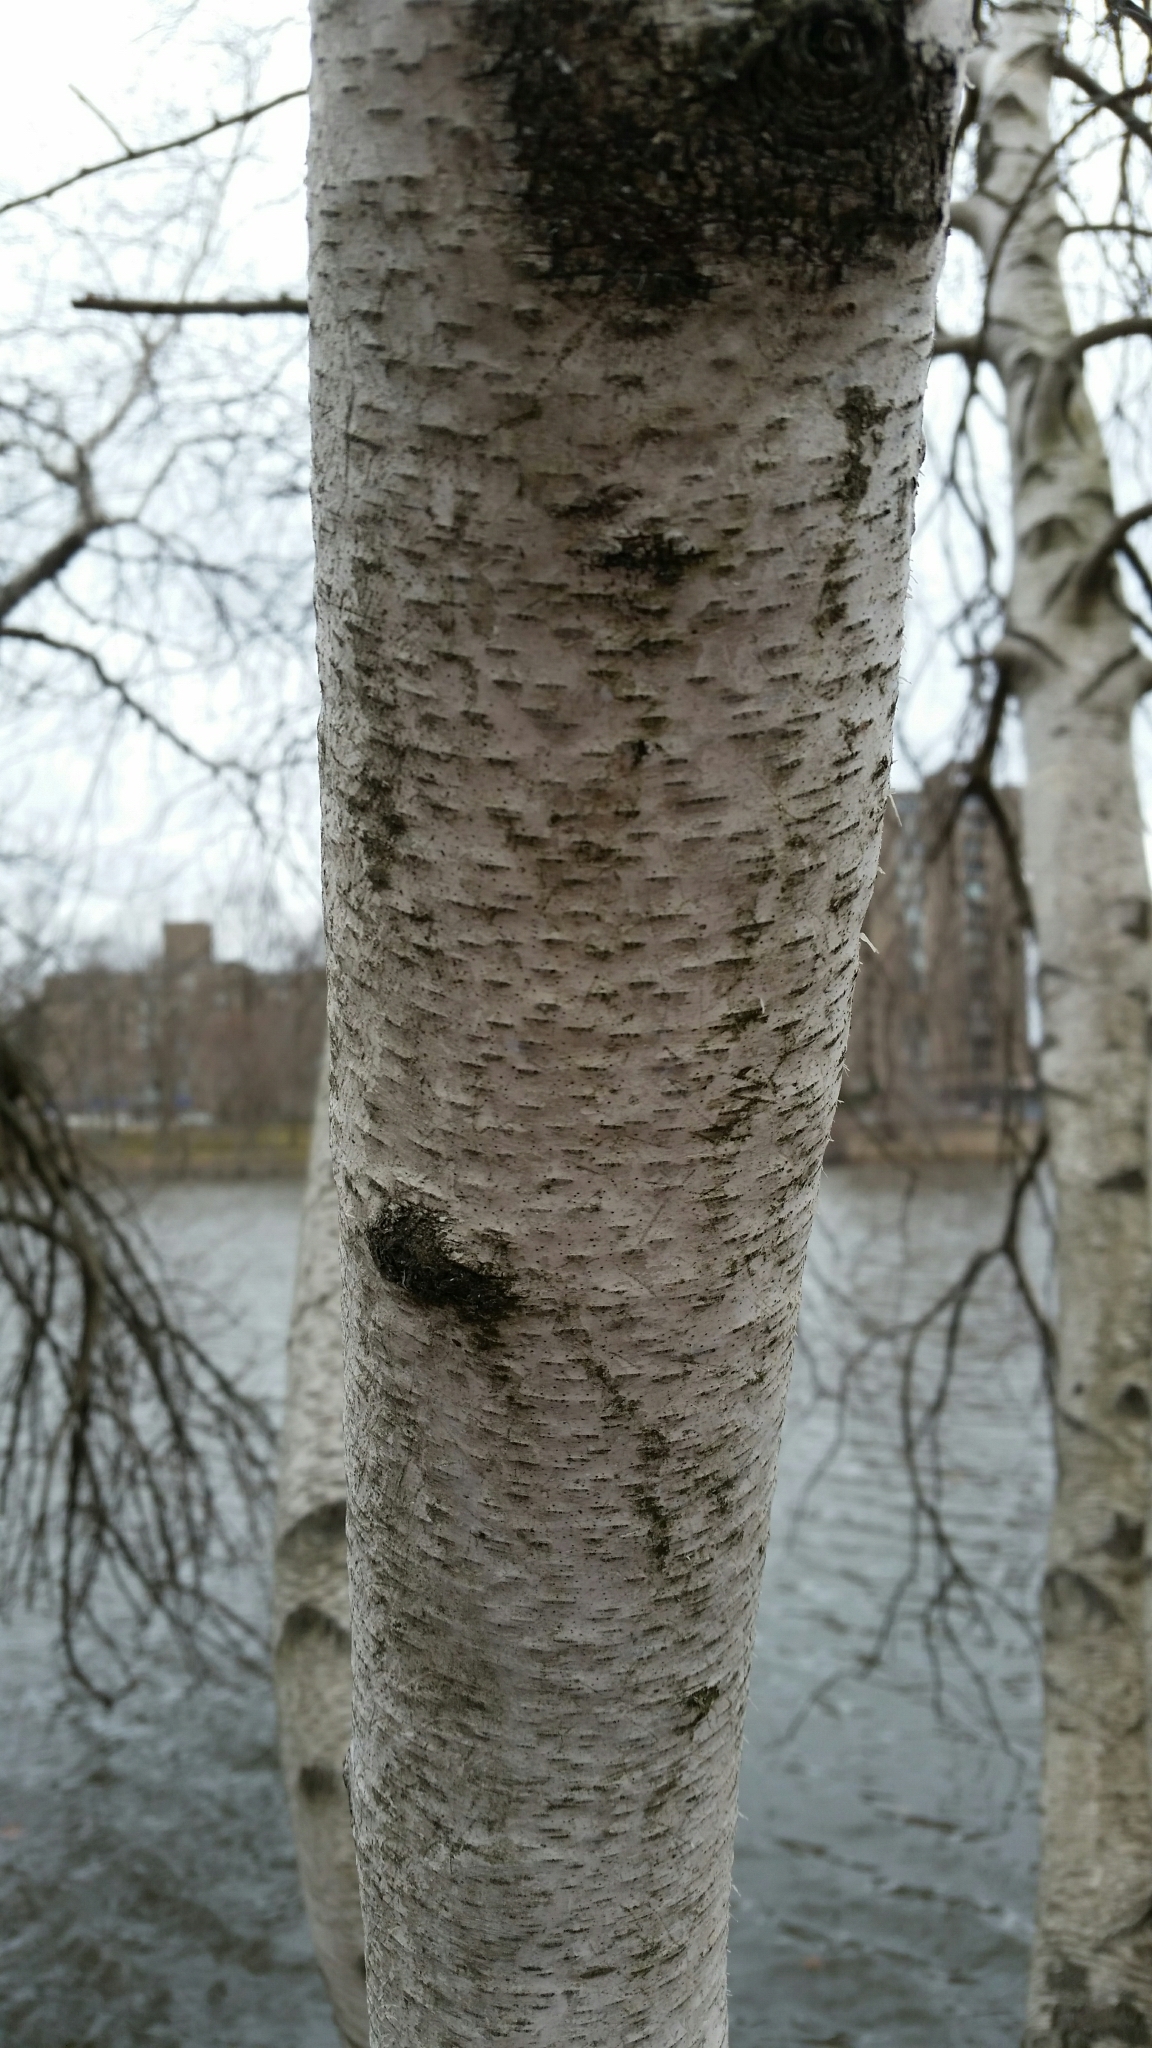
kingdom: Plantae
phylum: Tracheophyta
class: Magnoliopsida
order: Fagales
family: Betulaceae
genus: Betula
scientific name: Betula populifolia
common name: Fire birch
